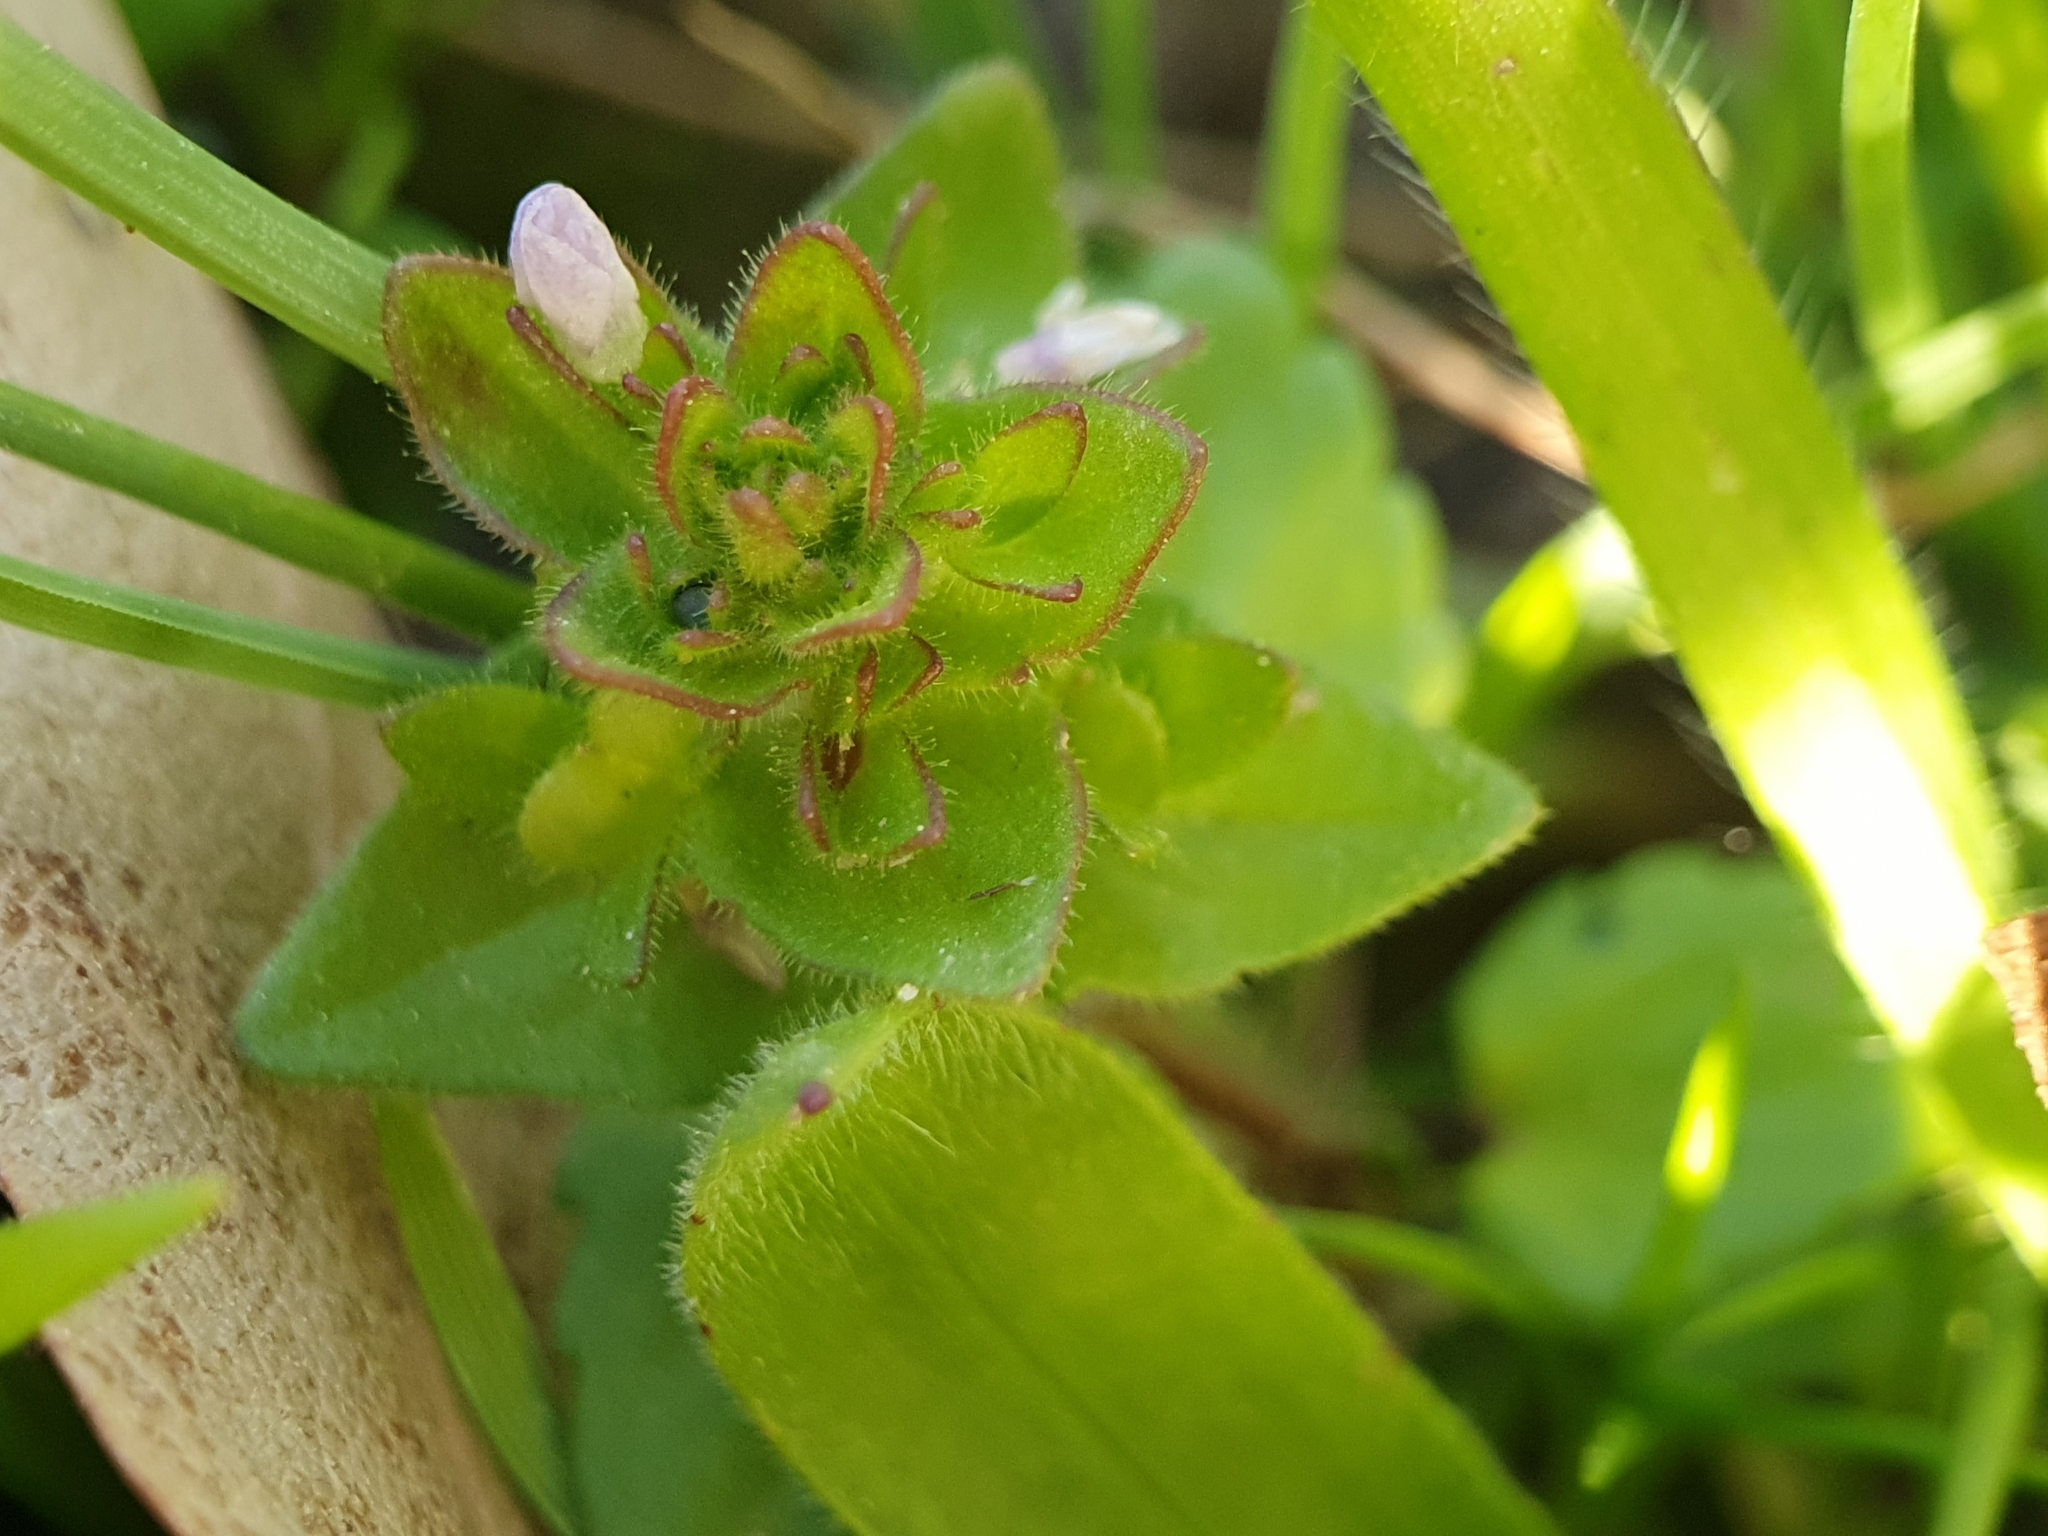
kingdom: Plantae
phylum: Tracheophyta
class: Magnoliopsida
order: Lamiales
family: Plantaginaceae
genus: Veronica
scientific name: Veronica arvensis
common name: Corn speedwell
